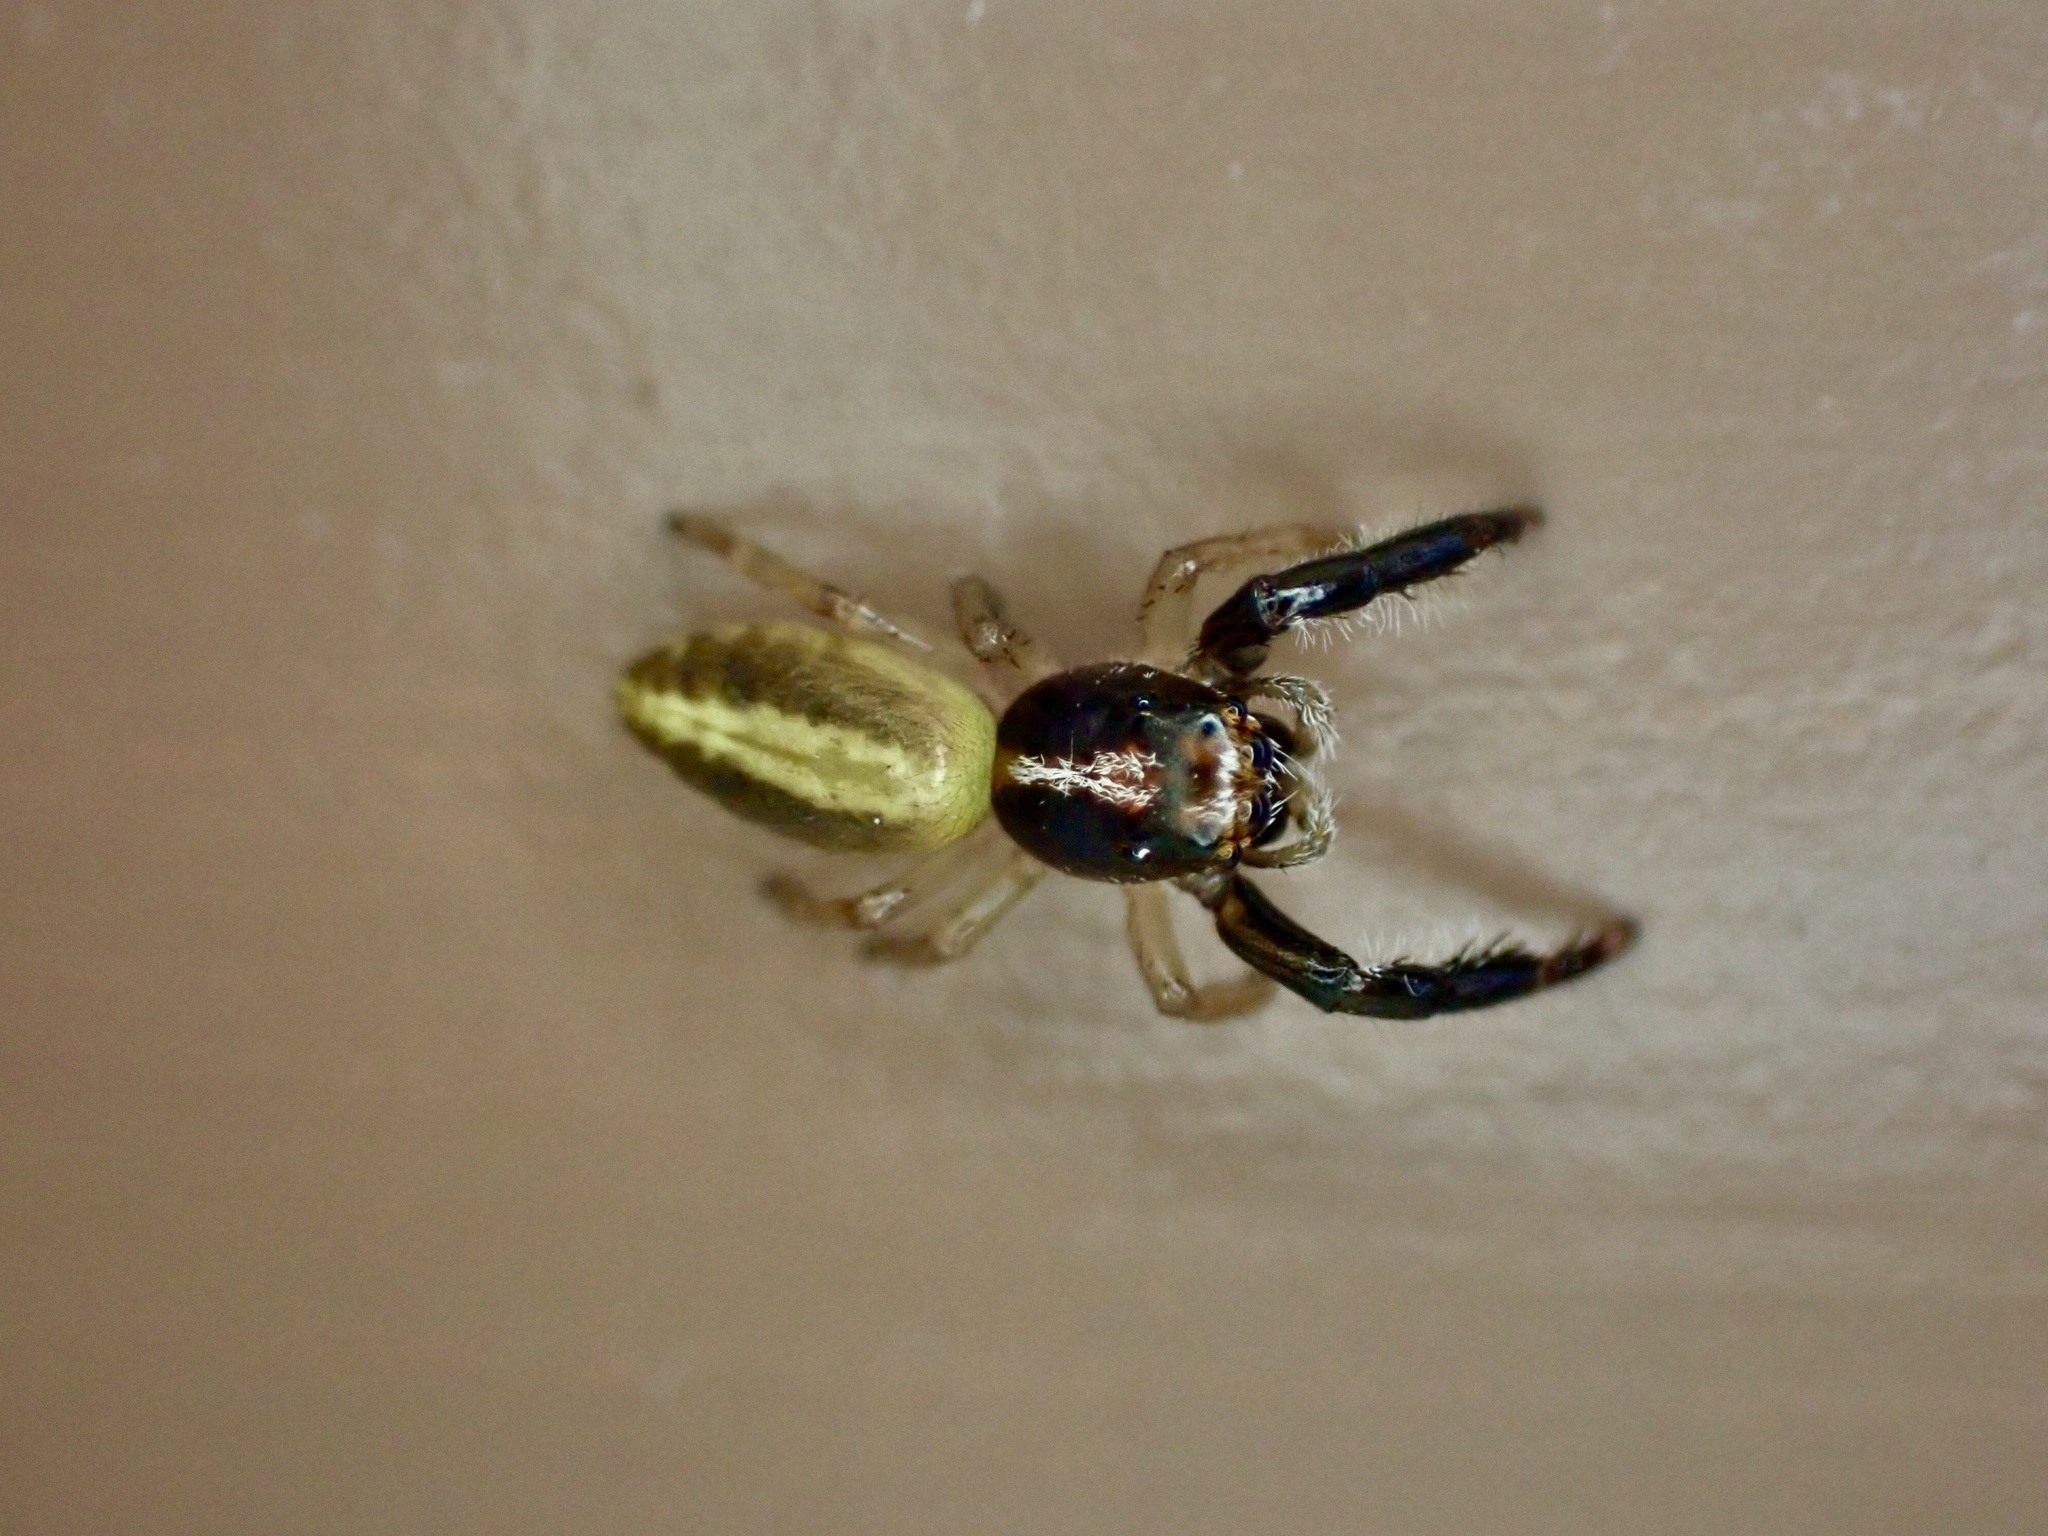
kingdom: Animalia
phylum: Arthropoda
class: Arachnida
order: Araneae
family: Salticidae
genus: Trite
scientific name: Trite planiceps
